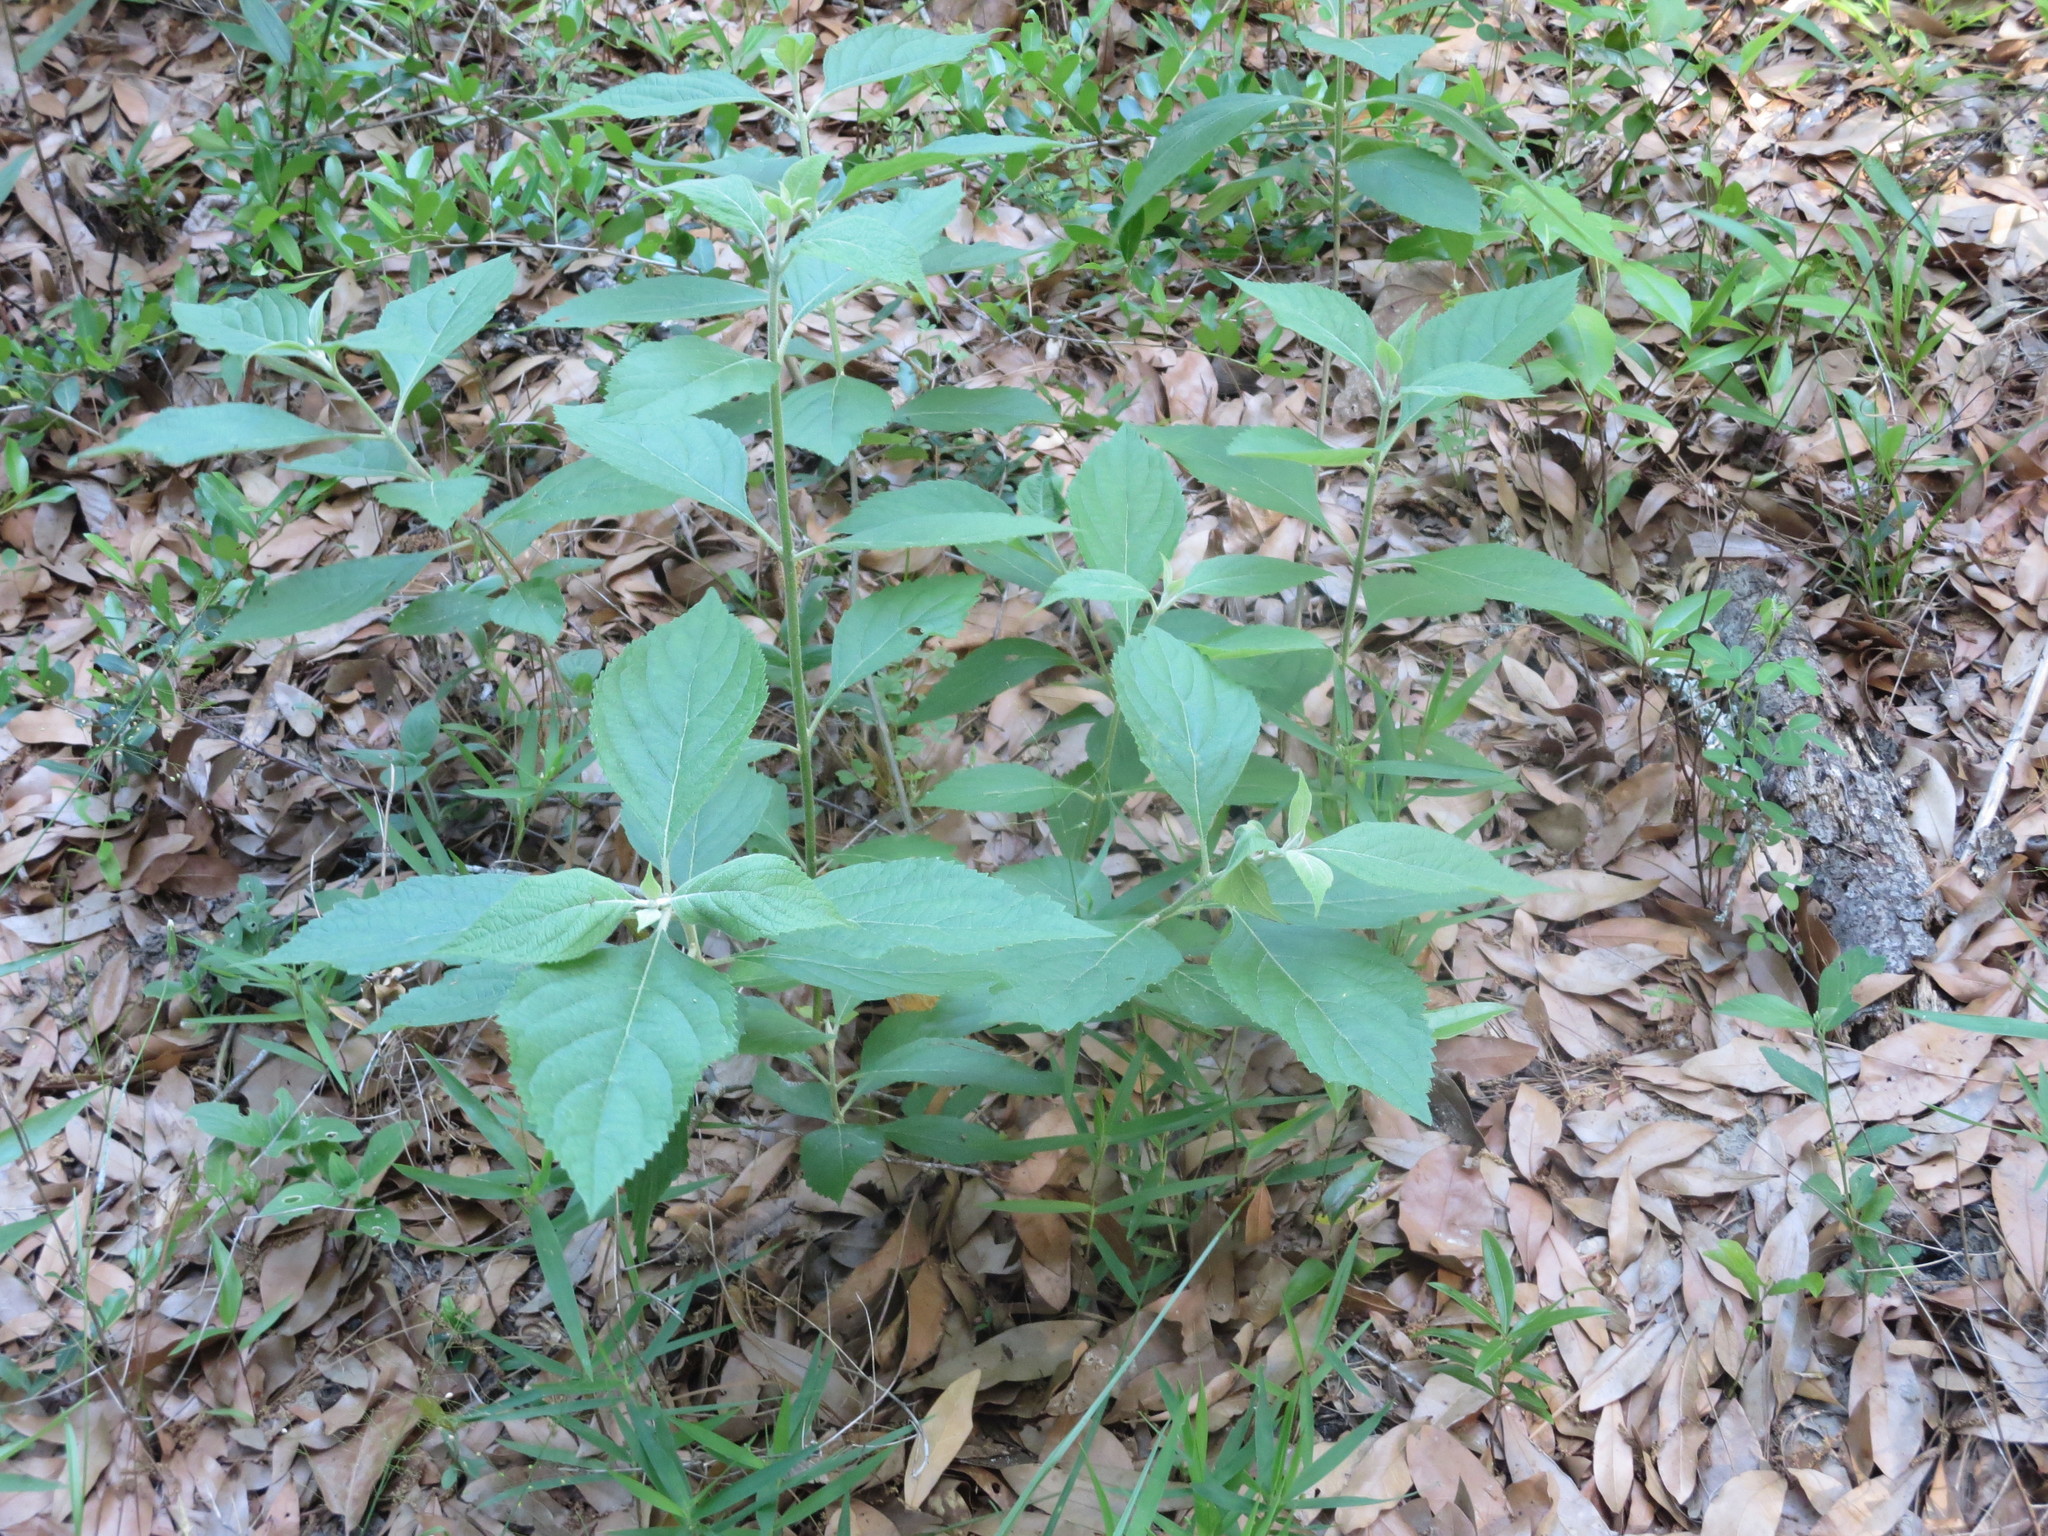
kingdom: Plantae
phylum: Tracheophyta
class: Magnoliopsida
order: Lamiales
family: Lamiaceae
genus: Callicarpa
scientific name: Callicarpa americana
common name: American beautyberry
